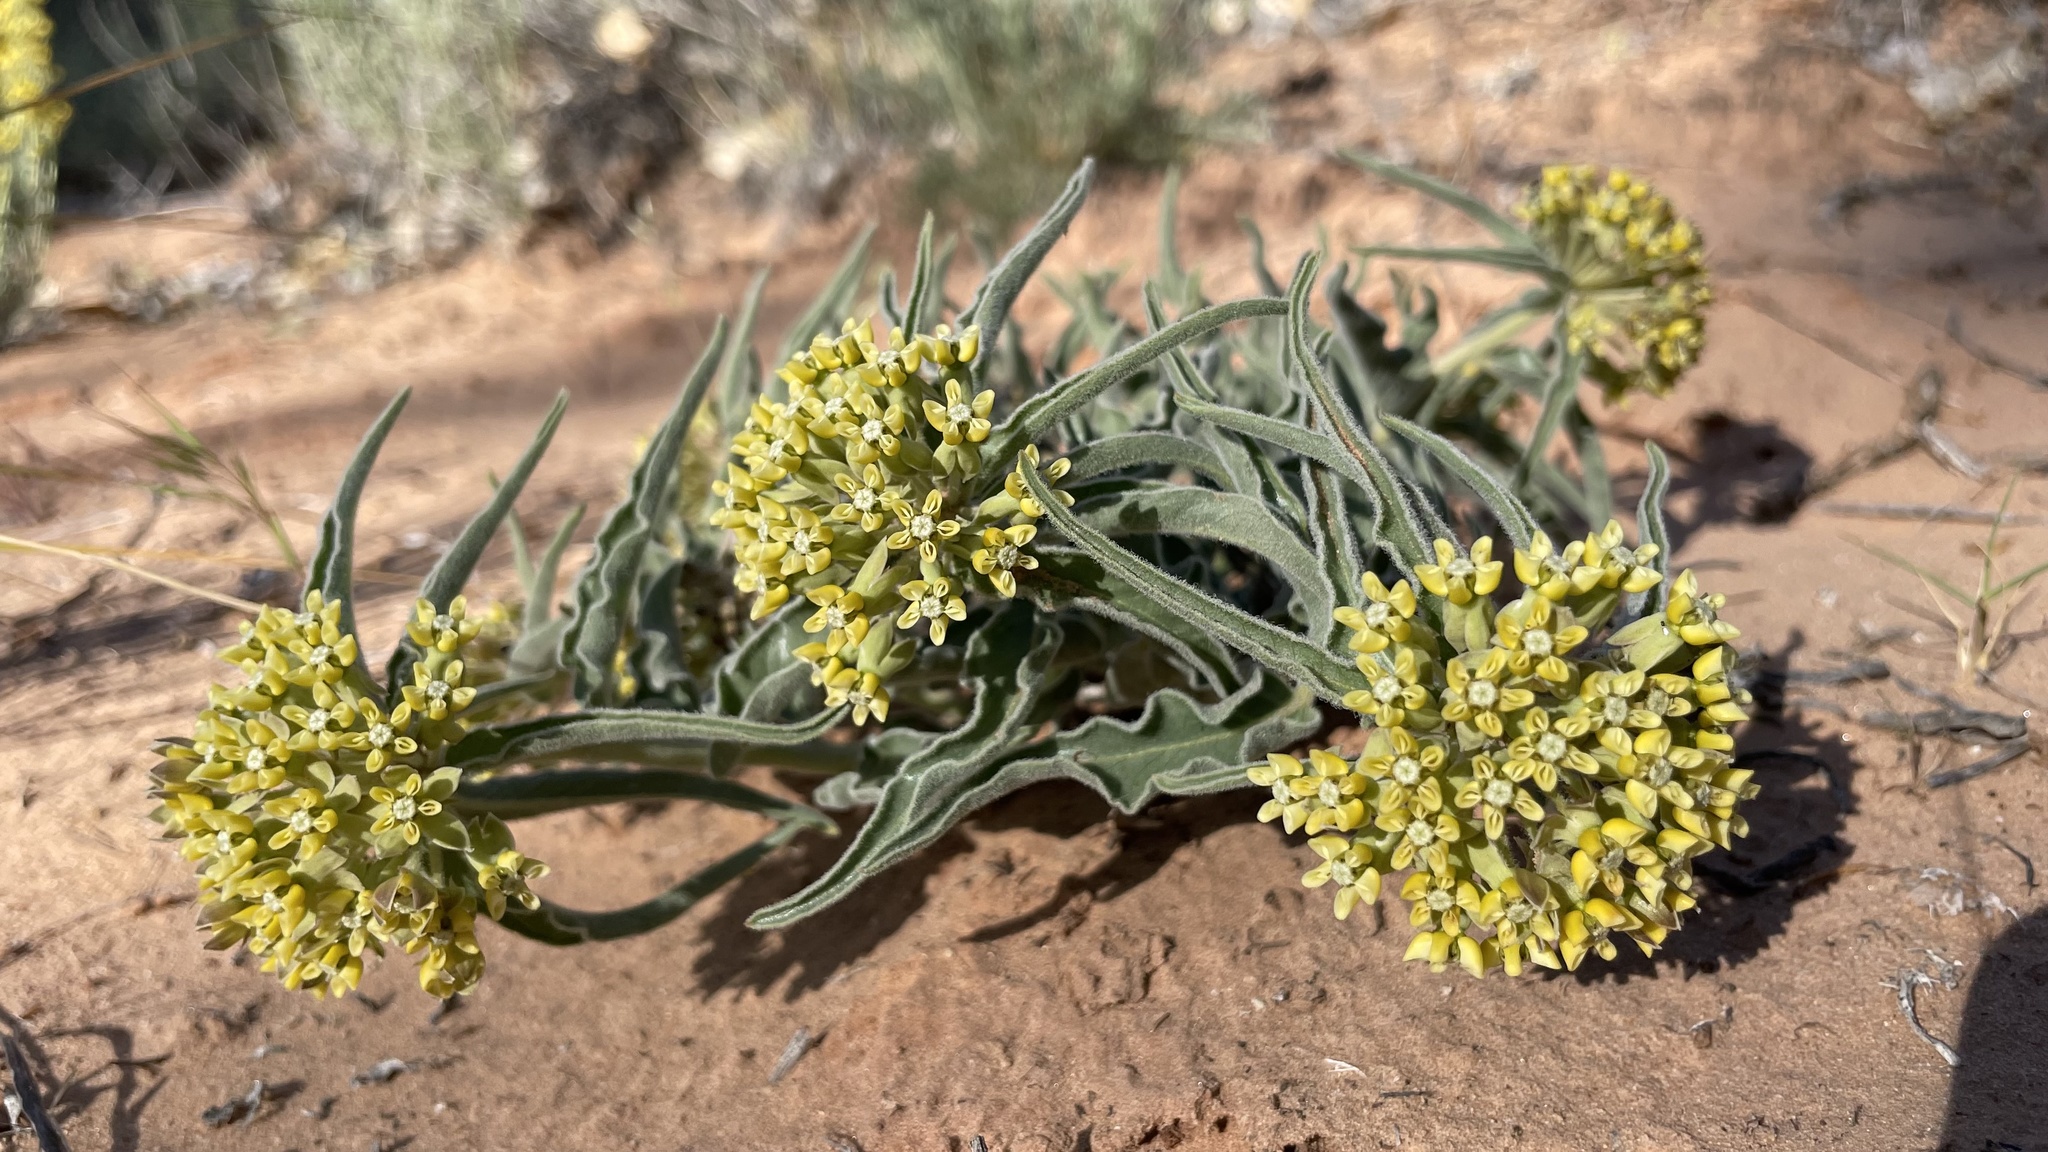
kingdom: Plantae
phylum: Tracheophyta
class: Magnoliopsida
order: Gentianales
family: Apocynaceae
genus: Asclepias
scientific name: Asclepias involucrata
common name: Dwarf milkweed
